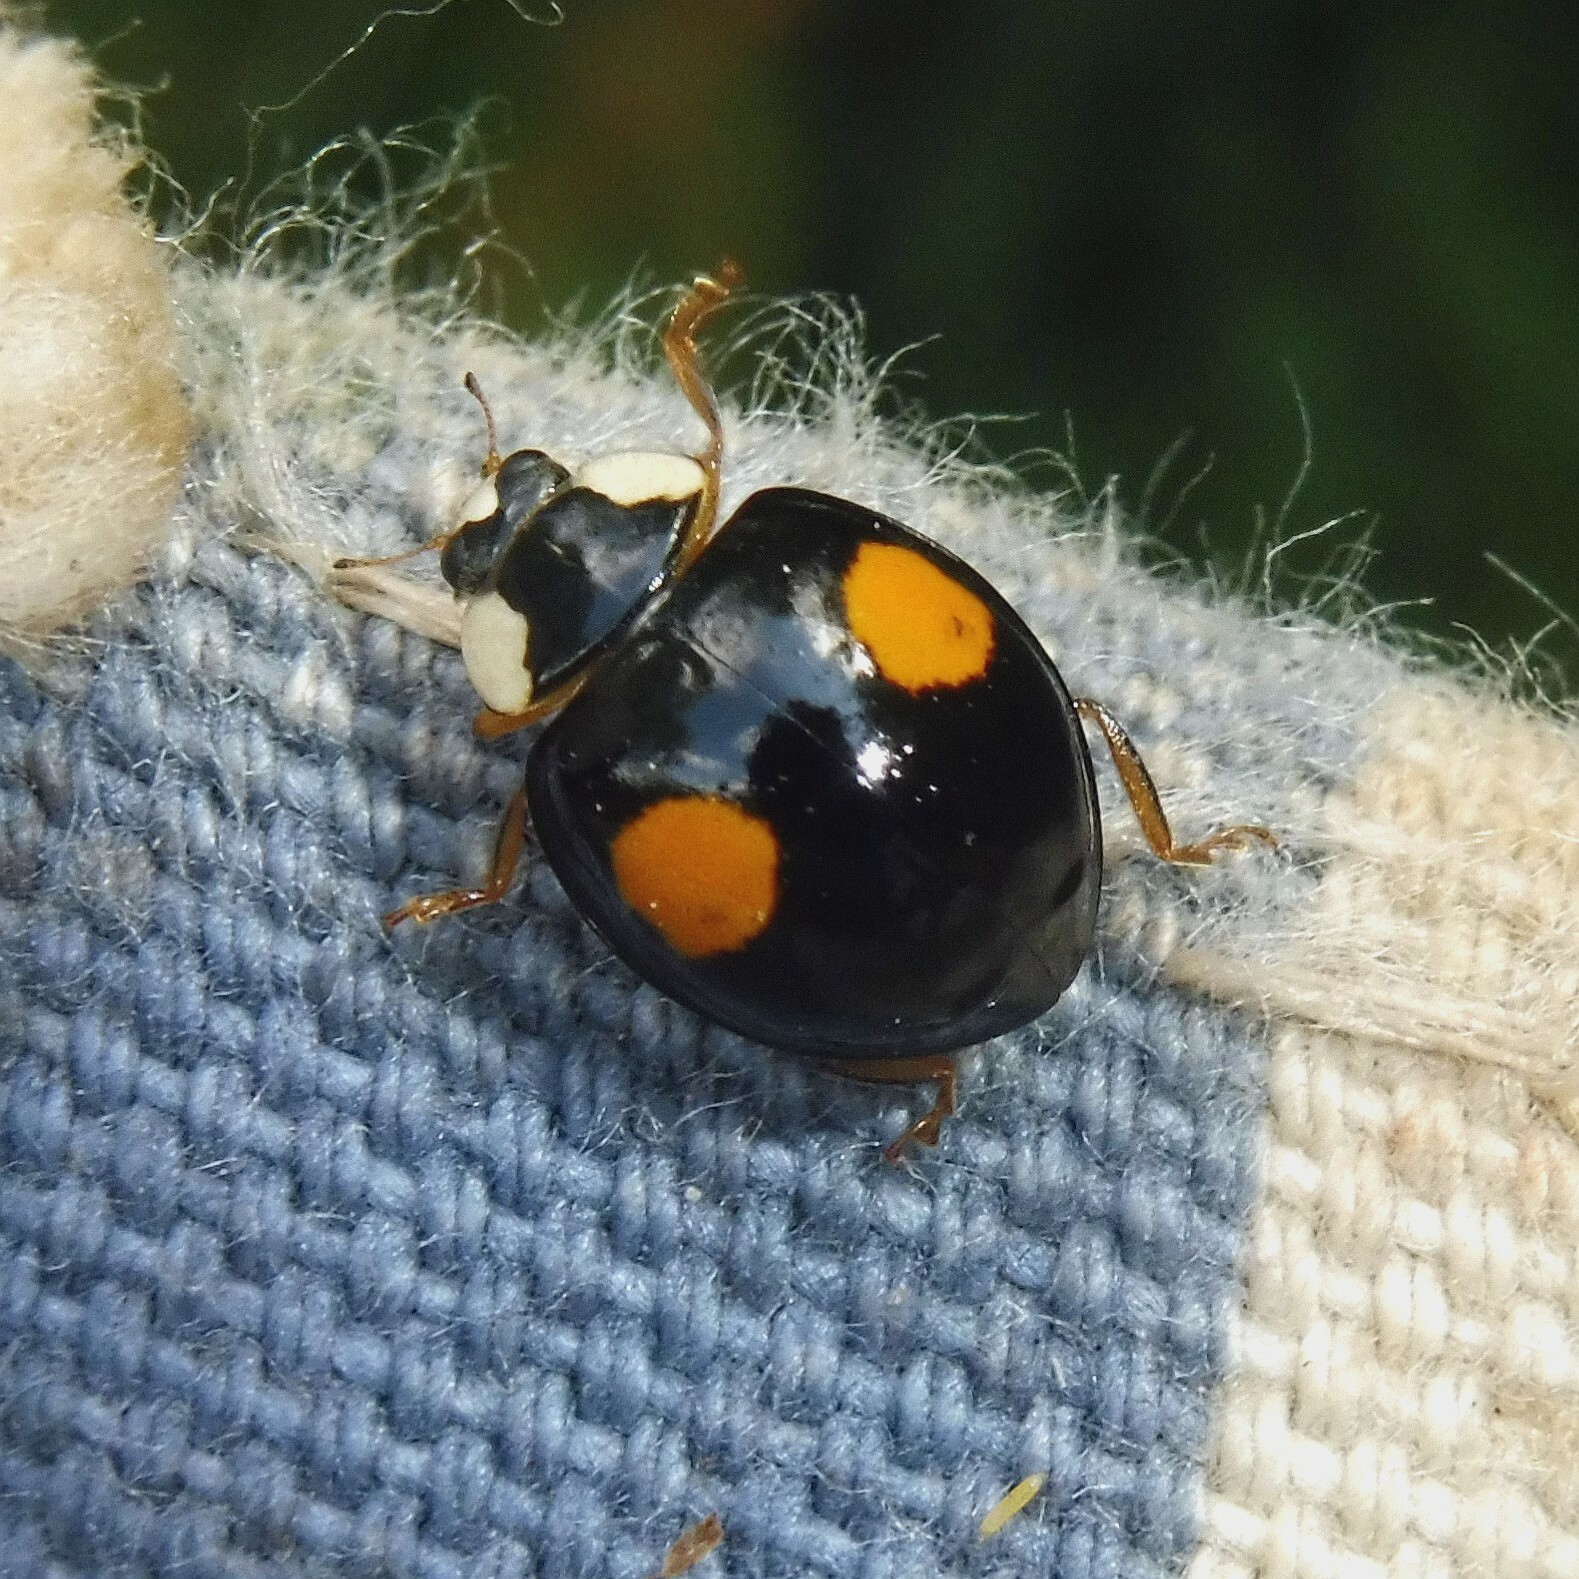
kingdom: Animalia
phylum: Arthropoda
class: Insecta
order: Coleoptera
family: Coccinellidae
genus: Harmonia
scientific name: Harmonia axyridis
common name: Harlequin ladybird
